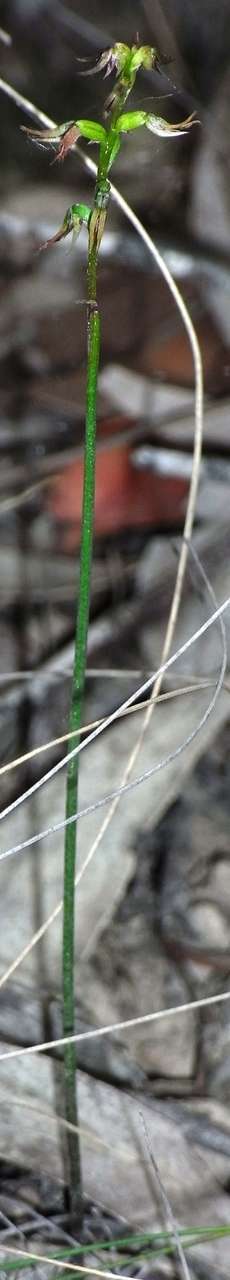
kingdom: Plantae
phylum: Tracheophyta
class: Liliopsida
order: Asparagales
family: Orchidaceae
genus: Genoplesium
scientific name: Genoplesium despectans
